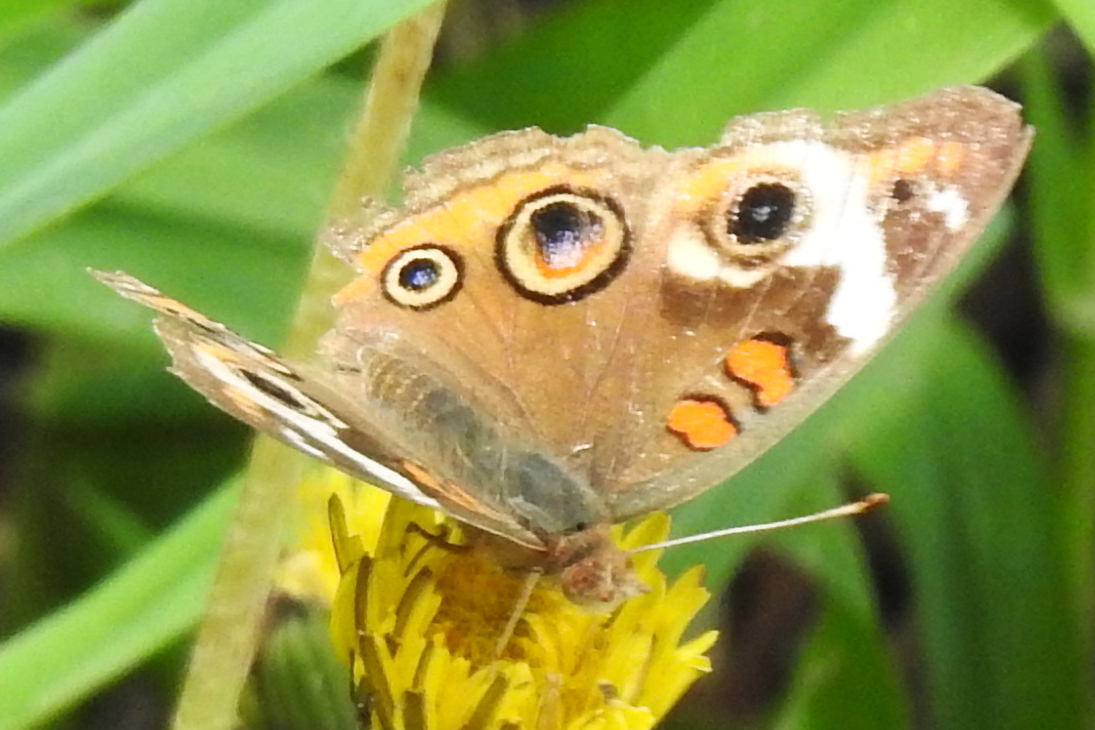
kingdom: Animalia
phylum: Arthropoda
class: Insecta
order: Lepidoptera
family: Nymphalidae
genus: Junonia
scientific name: Junonia coenia
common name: Common buckeye
